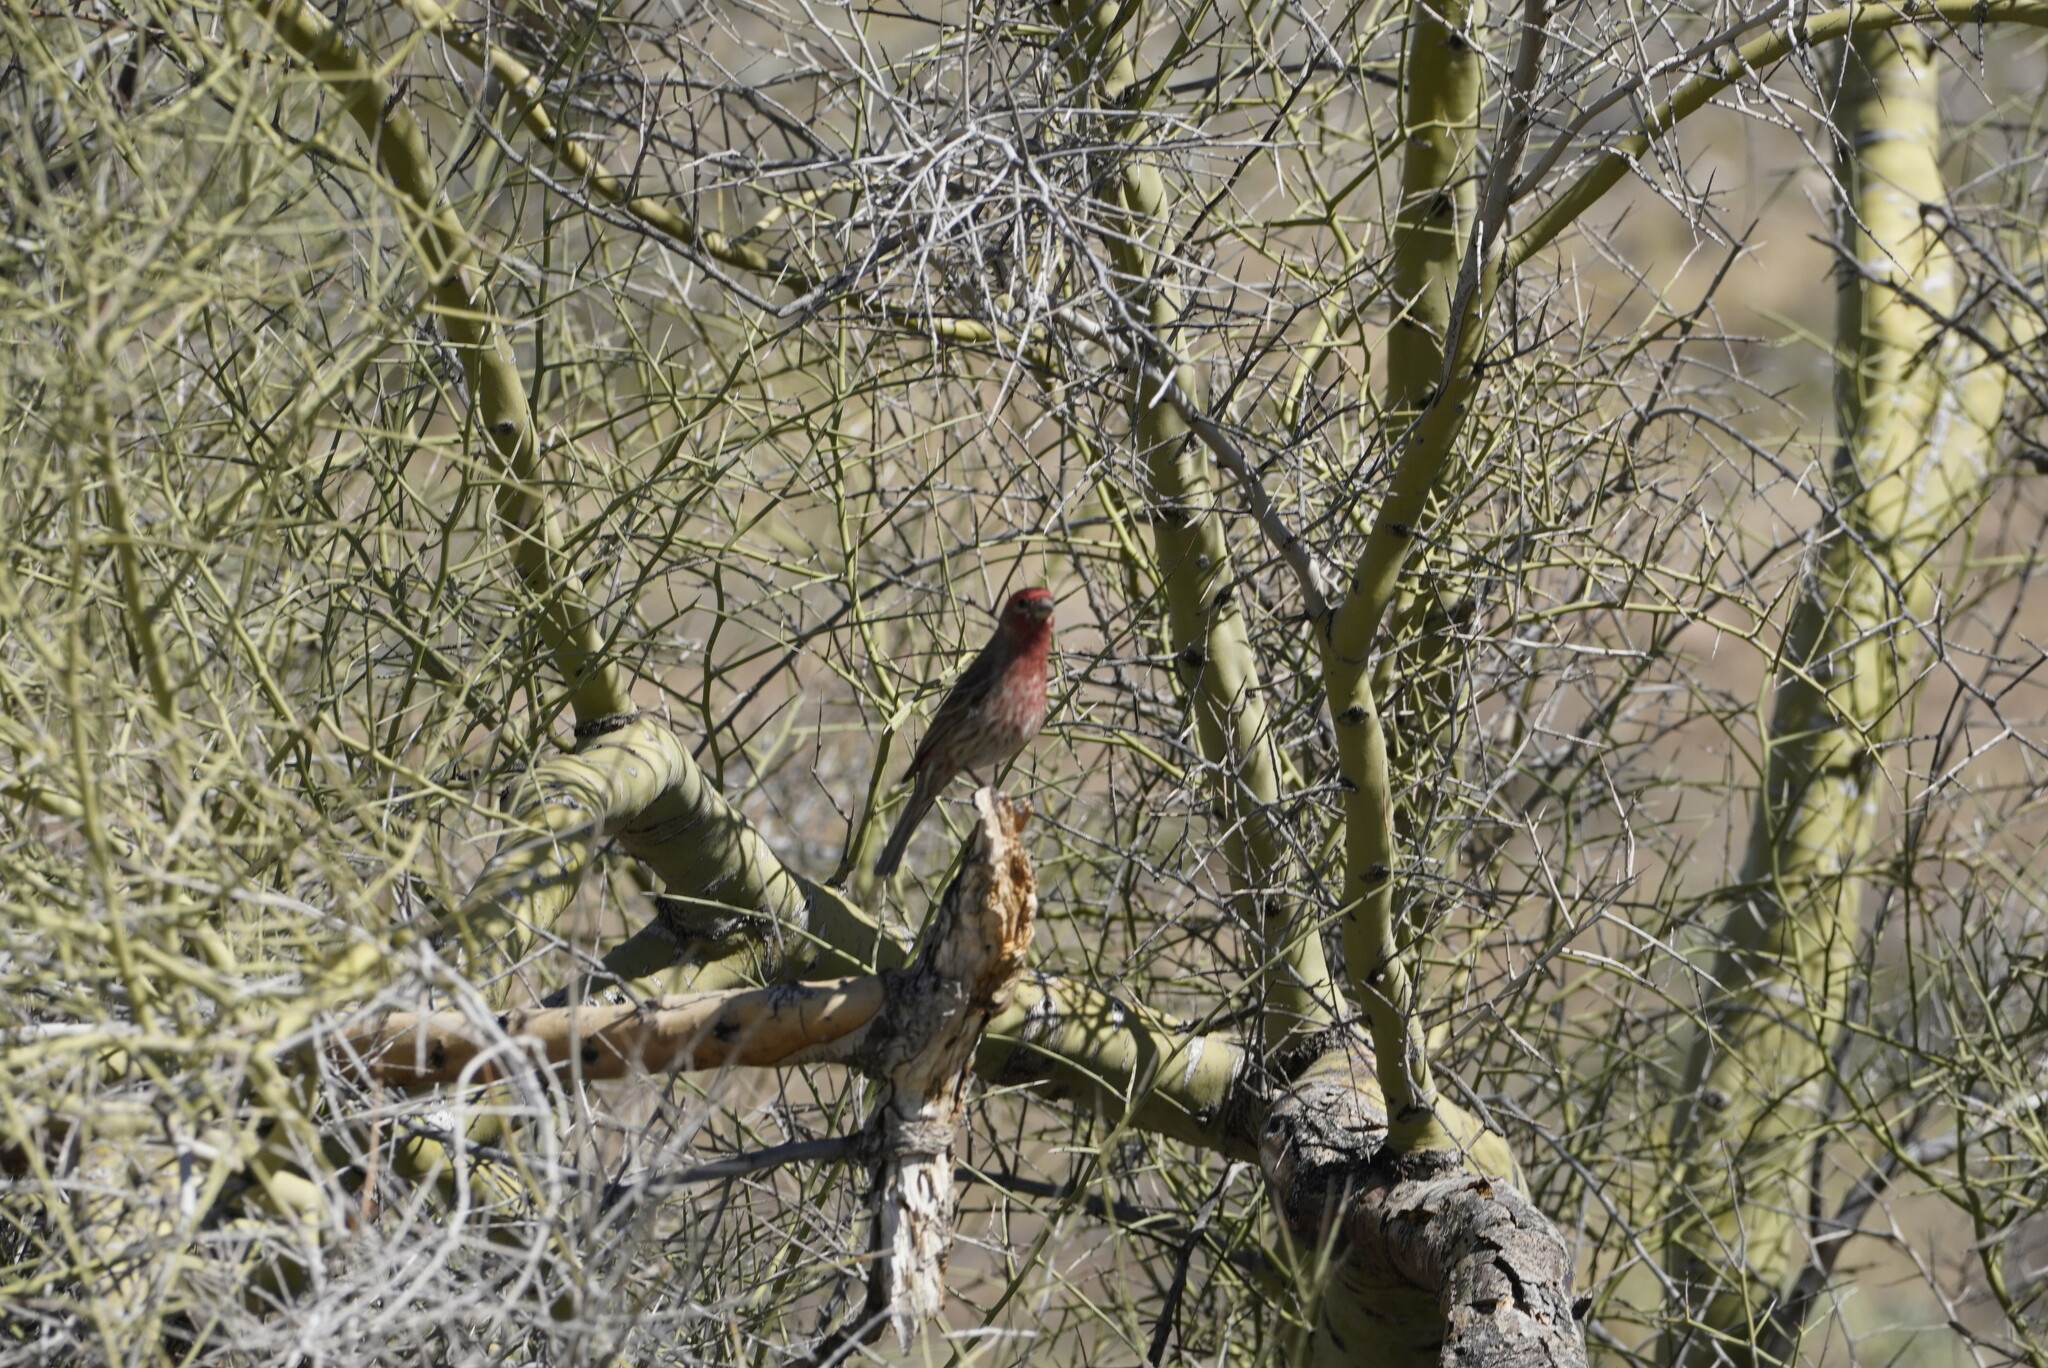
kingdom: Animalia
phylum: Chordata
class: Aves
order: Passeriformes
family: Fringillidae
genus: Haemorhous
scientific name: Haemorhous mexicanus
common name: House finch
